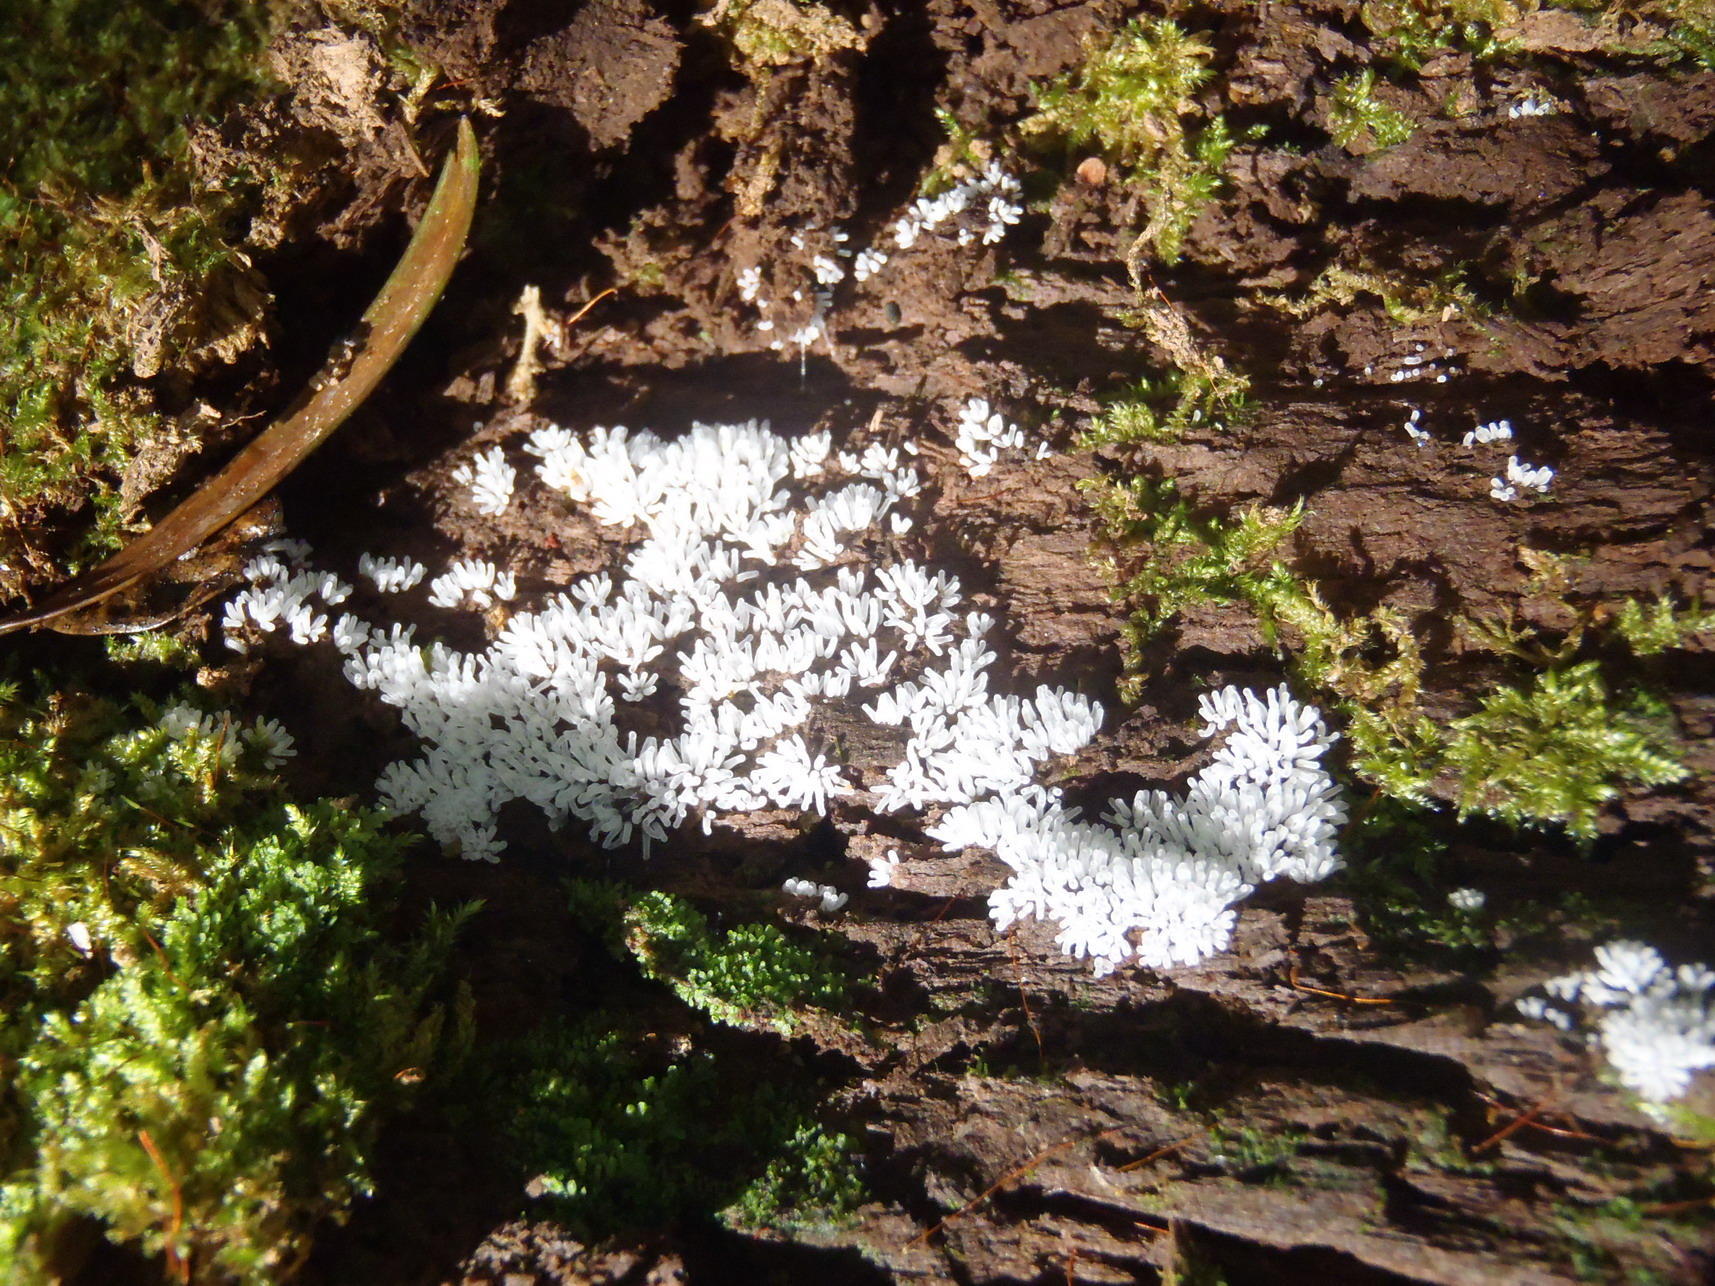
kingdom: Protozoa
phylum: Mycetozoa
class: Protosteliomycetes
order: Ceratiomyxales
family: Ceratiomyxaceae
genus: Ceratiomyxa
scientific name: Ceratiomyxa fruticulosa
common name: Honeycomb coral slime mold
